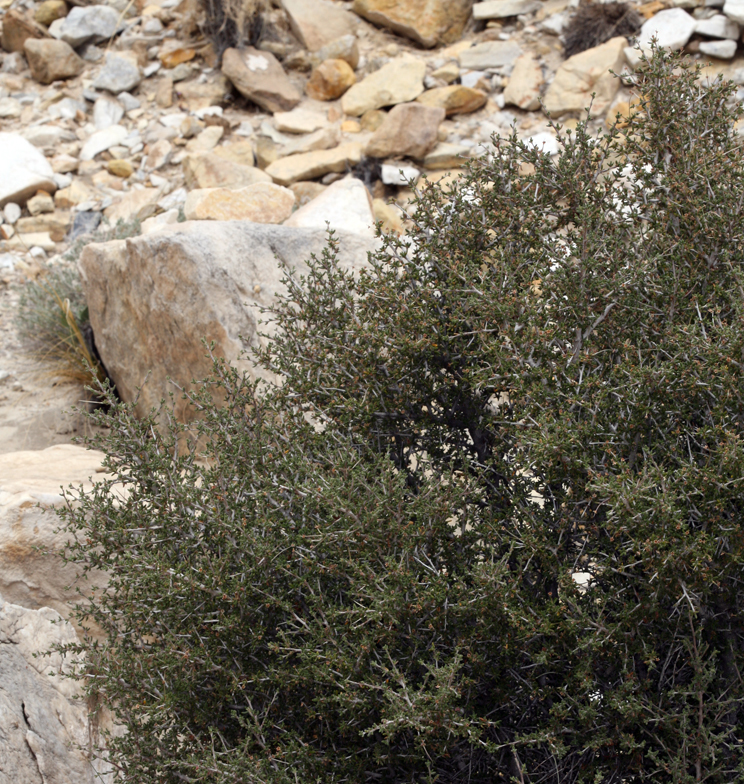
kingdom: Plantae
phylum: Tracheophyta
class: Magnoliopsida
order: Rosales
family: Rosaceae
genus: Cercocarpus
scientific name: Cercocarpus intricatus
